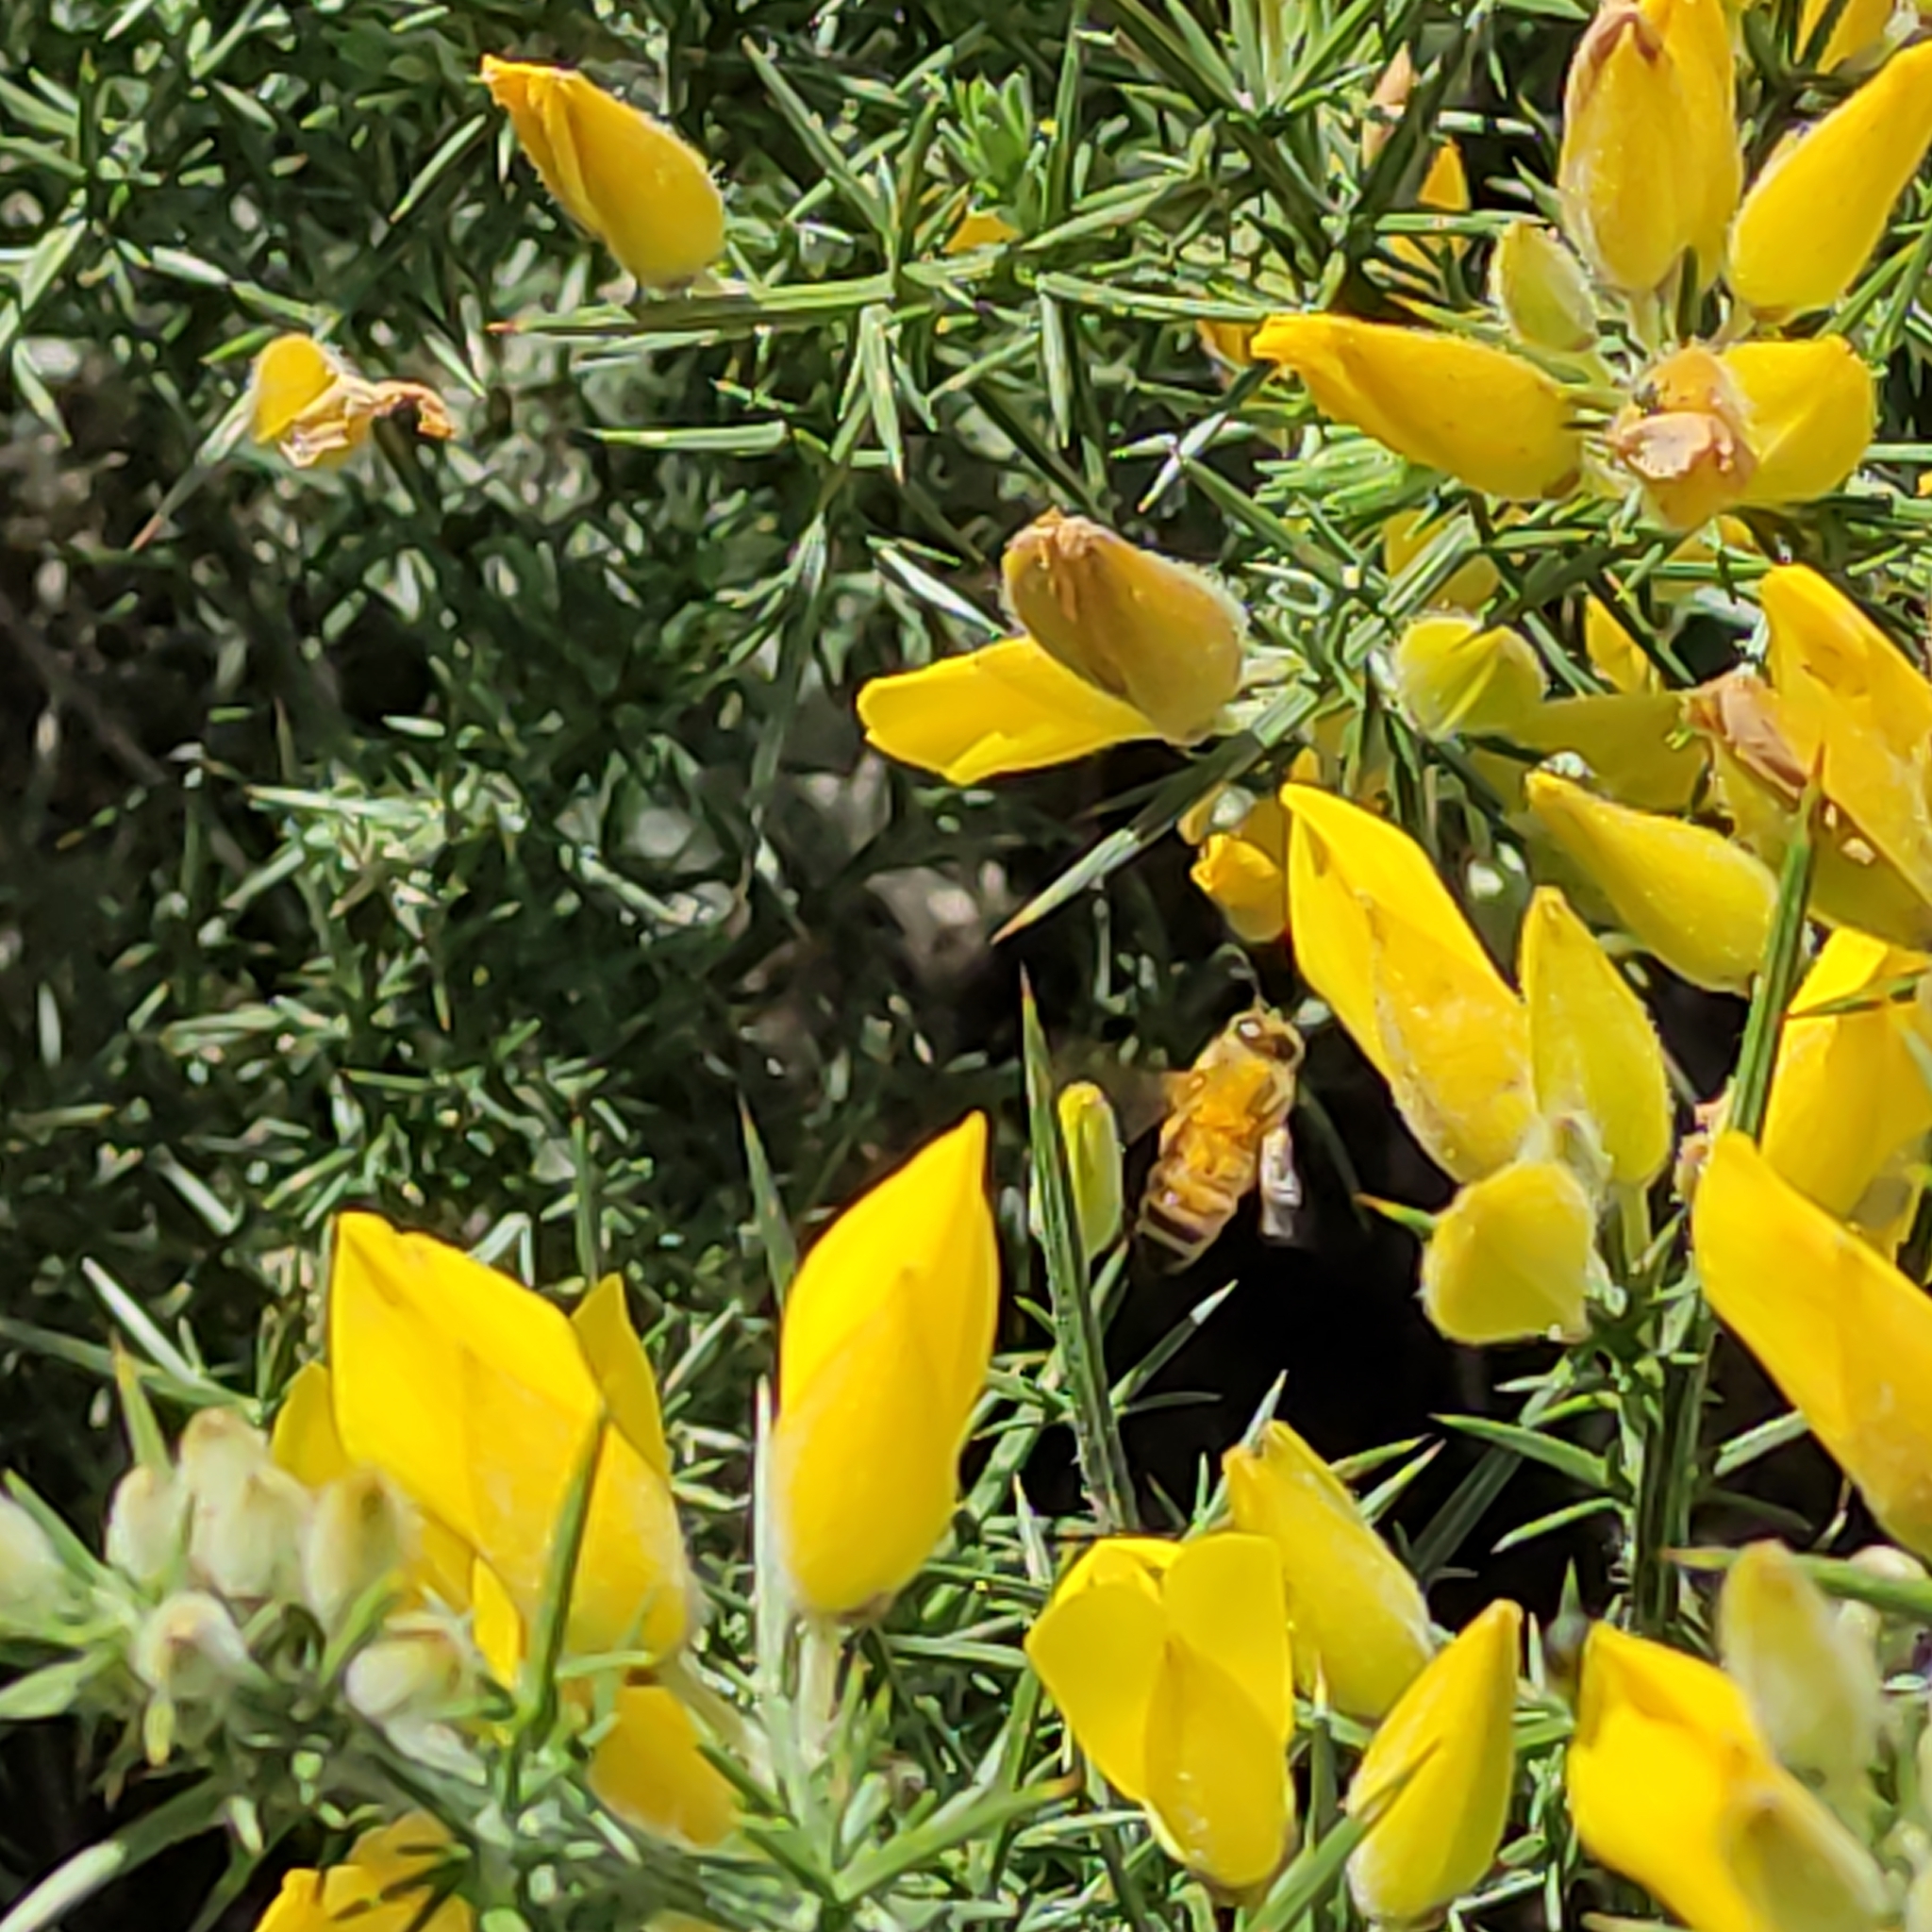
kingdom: Animalia
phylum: Arthropoda
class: Insecta
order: Hymenoptera
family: Apidae
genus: Apis
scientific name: Apis mellifera
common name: Honey bee
